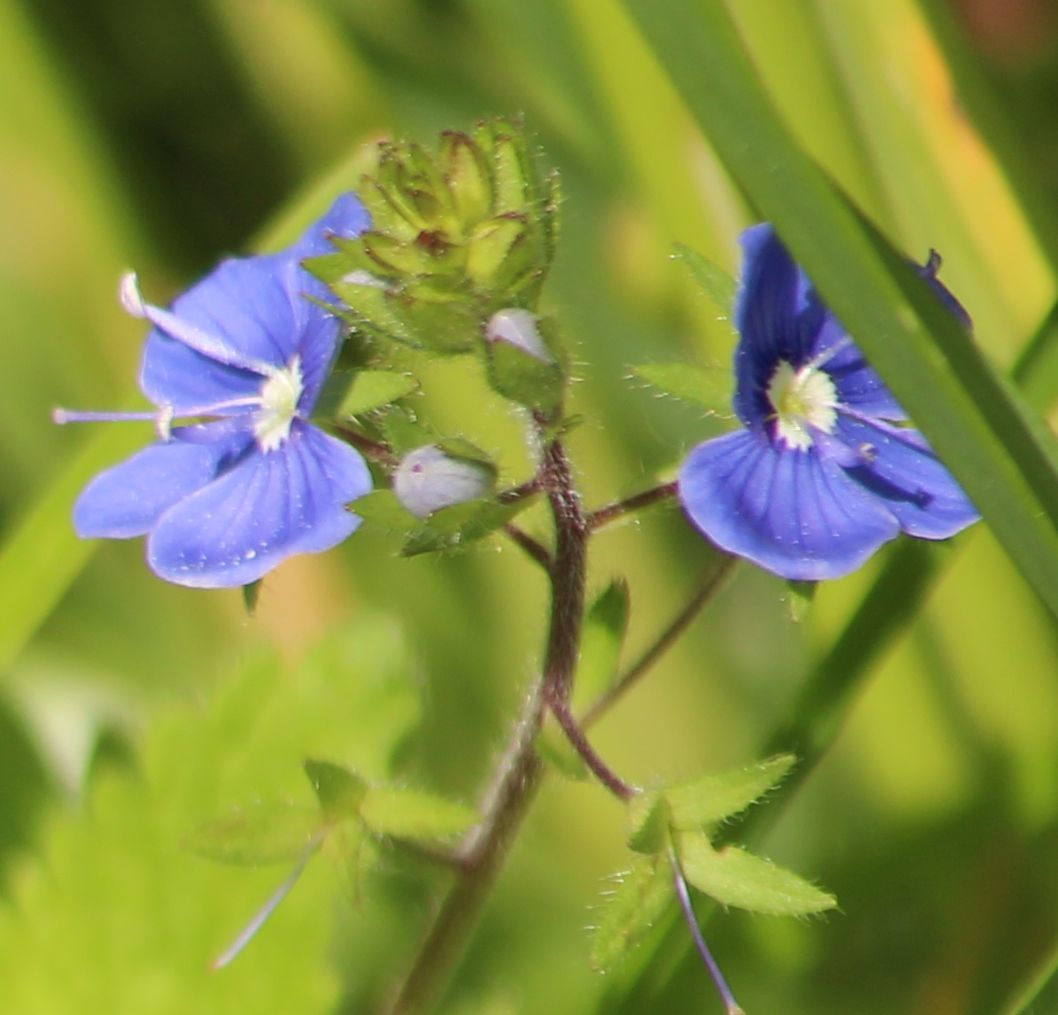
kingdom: Plantae
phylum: Tracheophyta
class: Magnoliopsida
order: Lamiales
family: Plantaginaceae
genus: Veronica
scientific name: Veronica chamaedrys
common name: Germander speedwell
